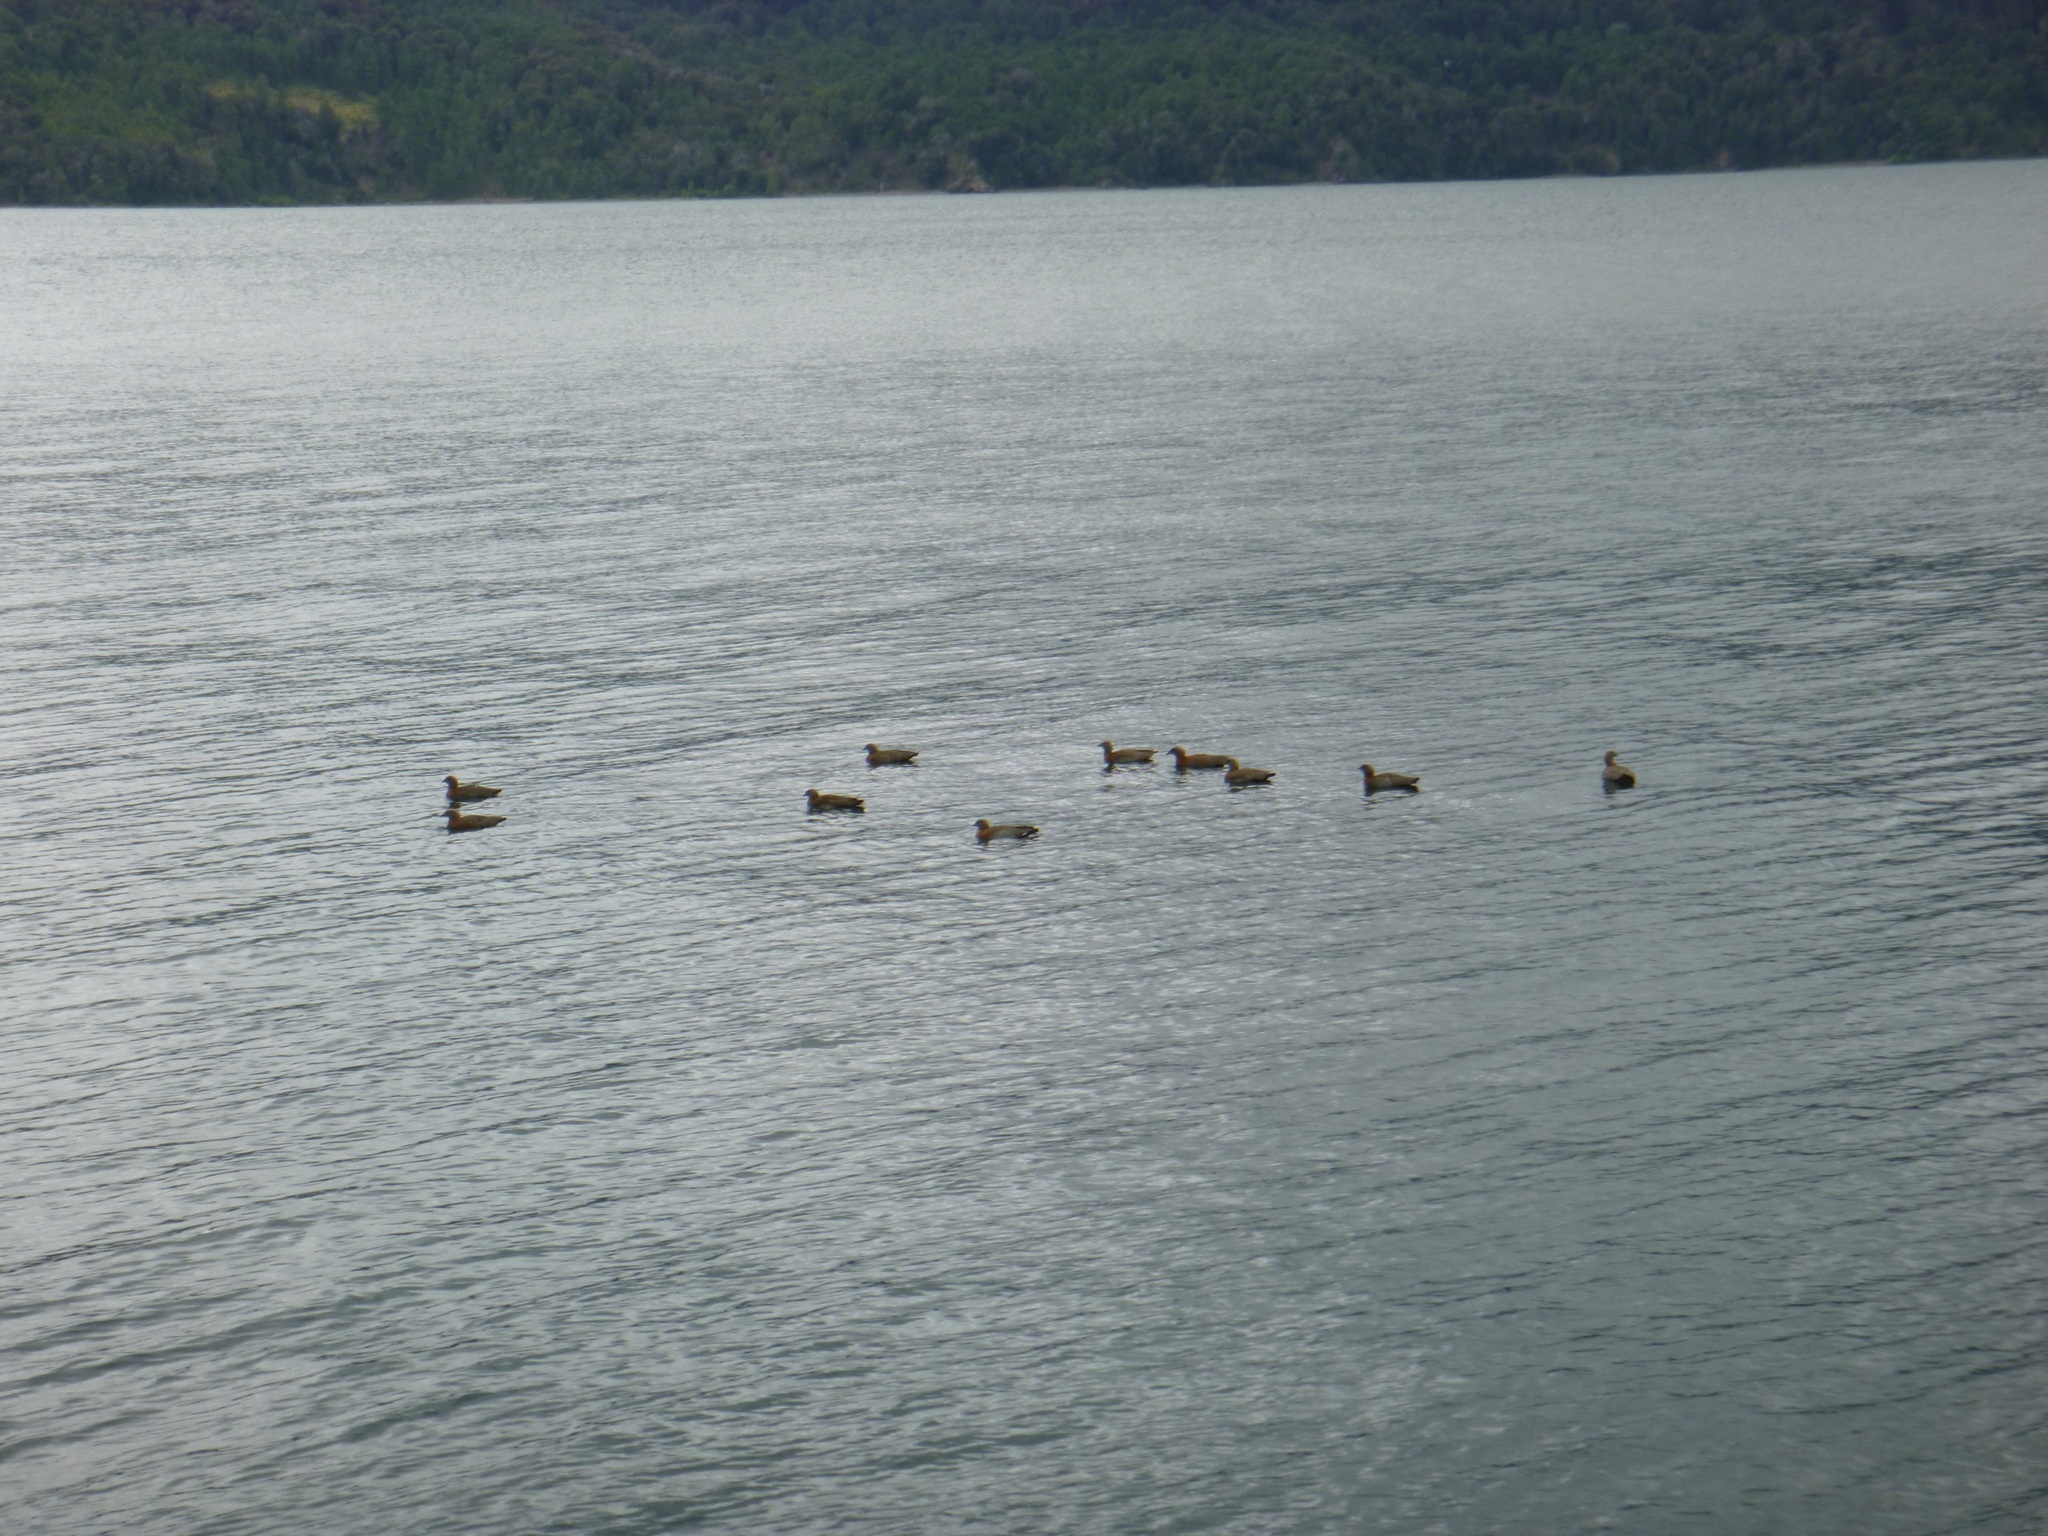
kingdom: Animalia
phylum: Chordata
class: Aves
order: Anseriformes
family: Anatidae
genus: Chloephaga
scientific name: Chloephaga poliocephala
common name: Ashy-headed goose
